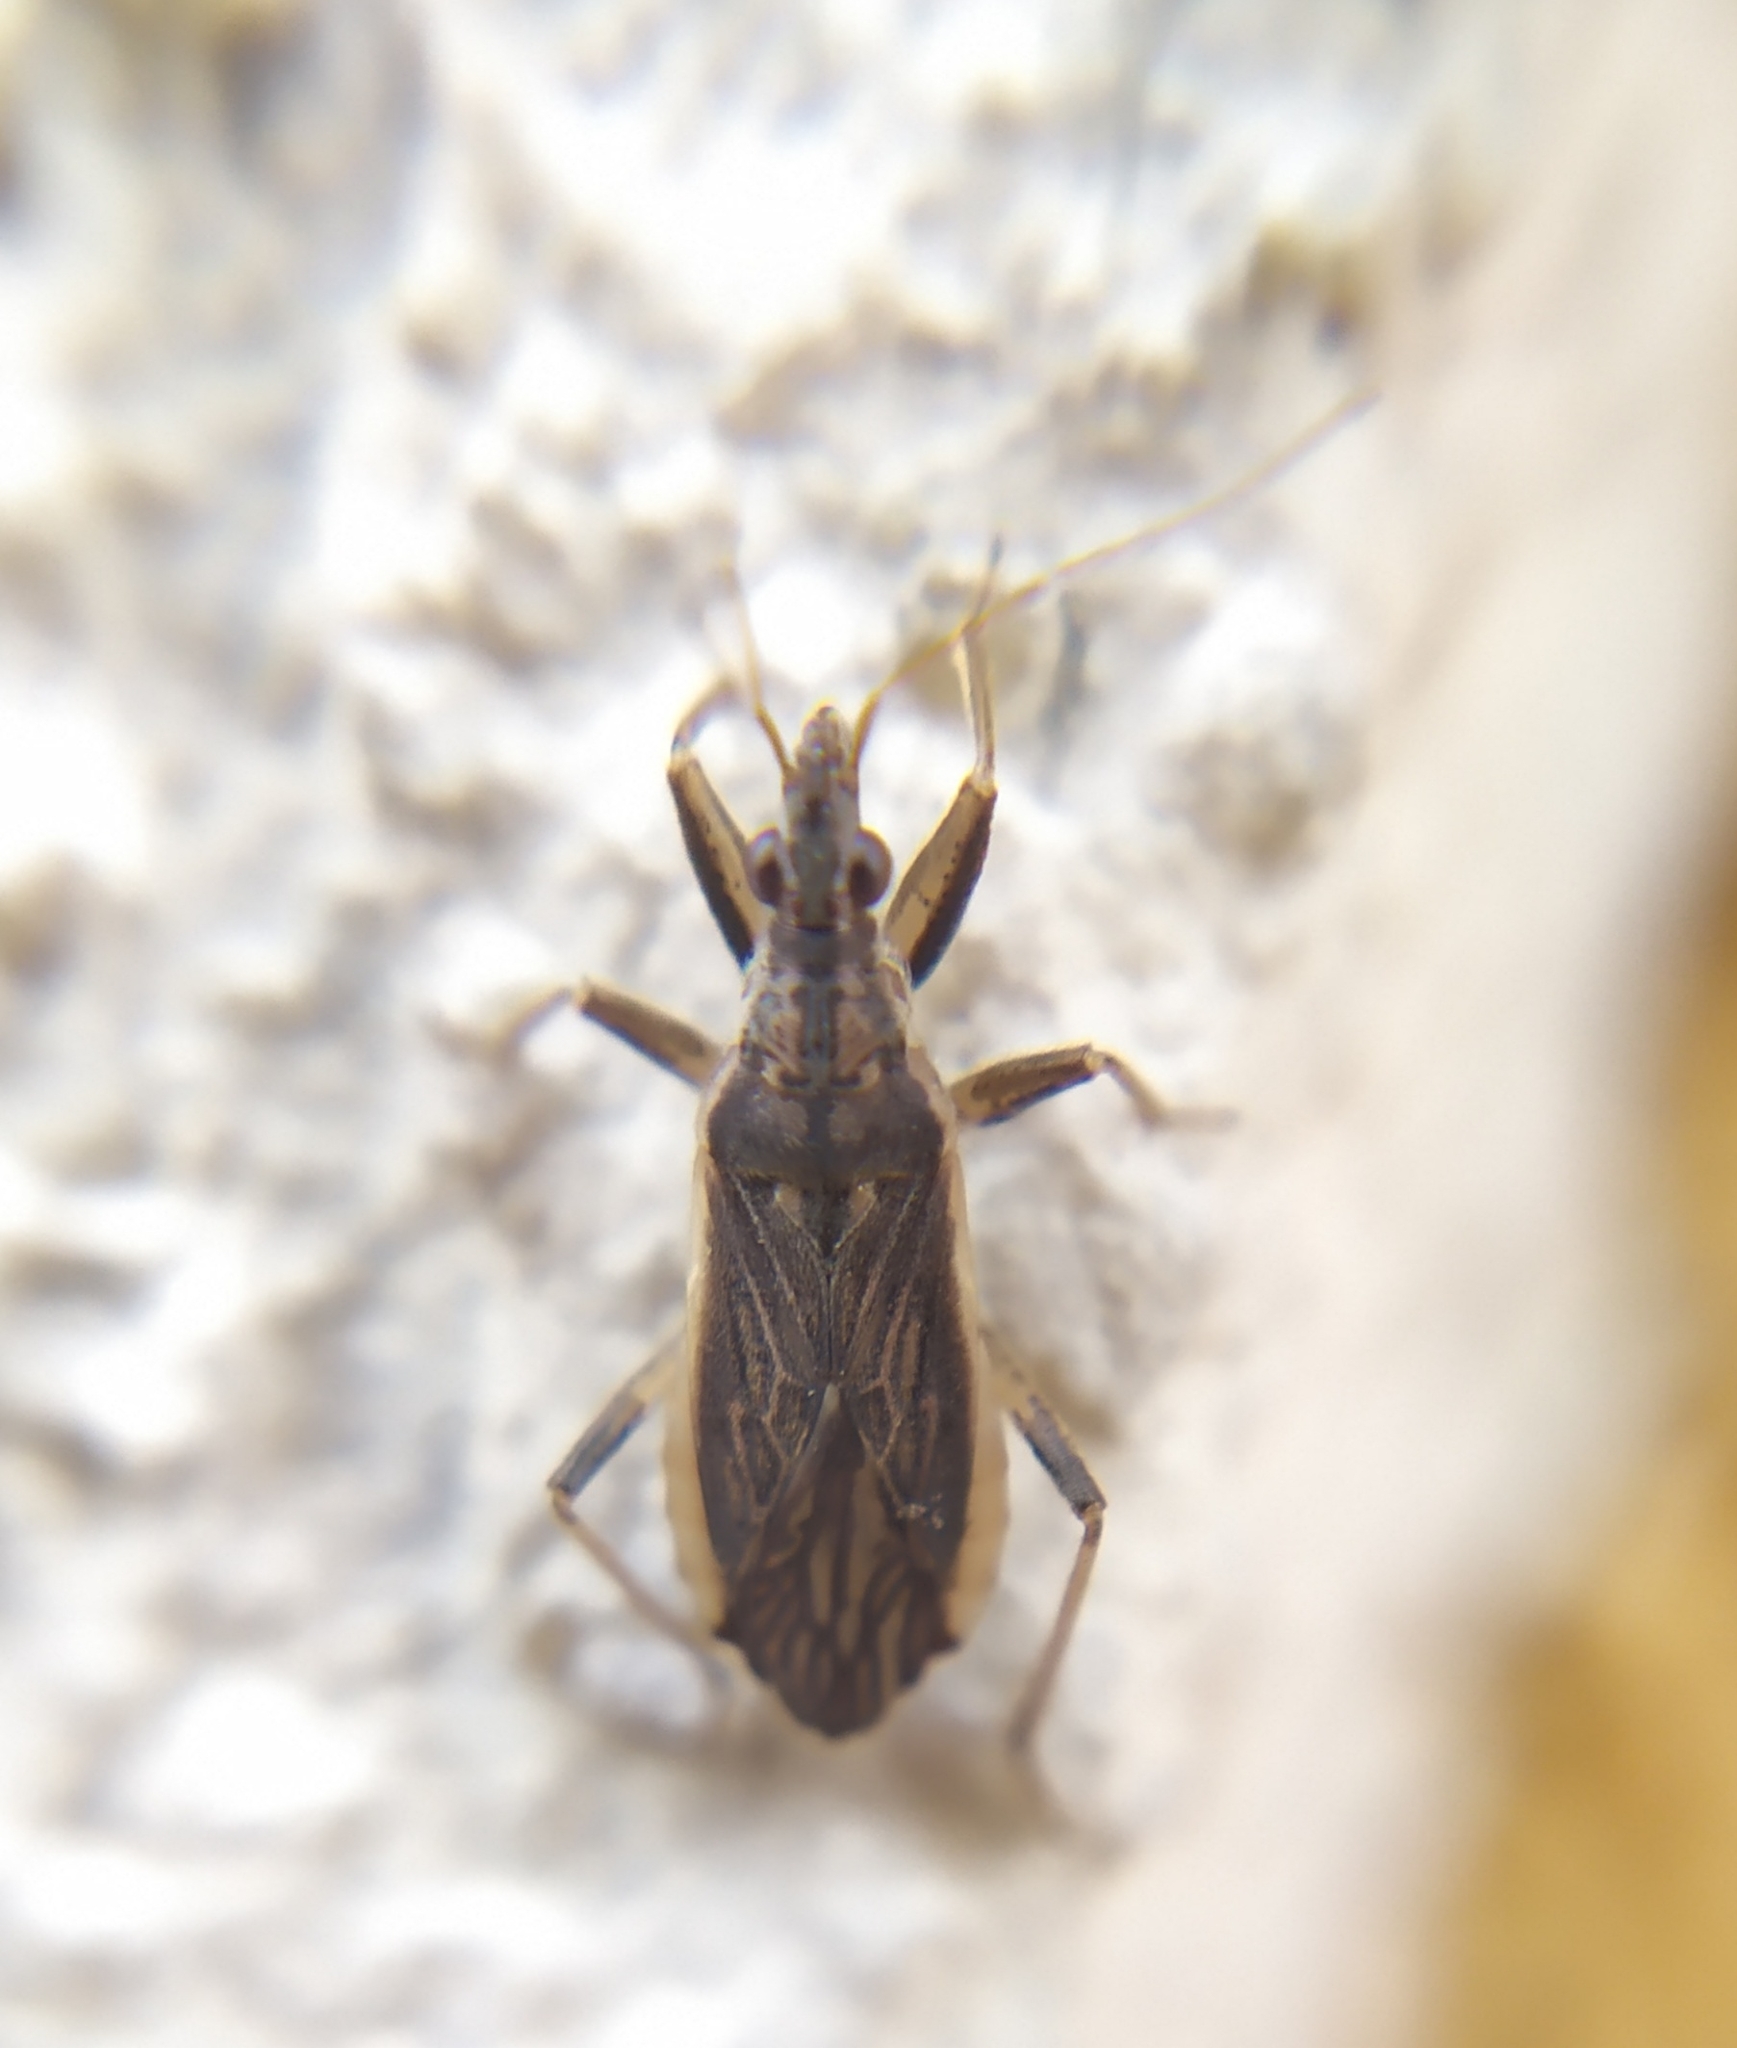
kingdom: Animalia
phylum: Arthropoda
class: Insecta
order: Hemiptera
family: Nabidae
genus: Himacerus
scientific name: Himacerus major
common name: Damsel bug
